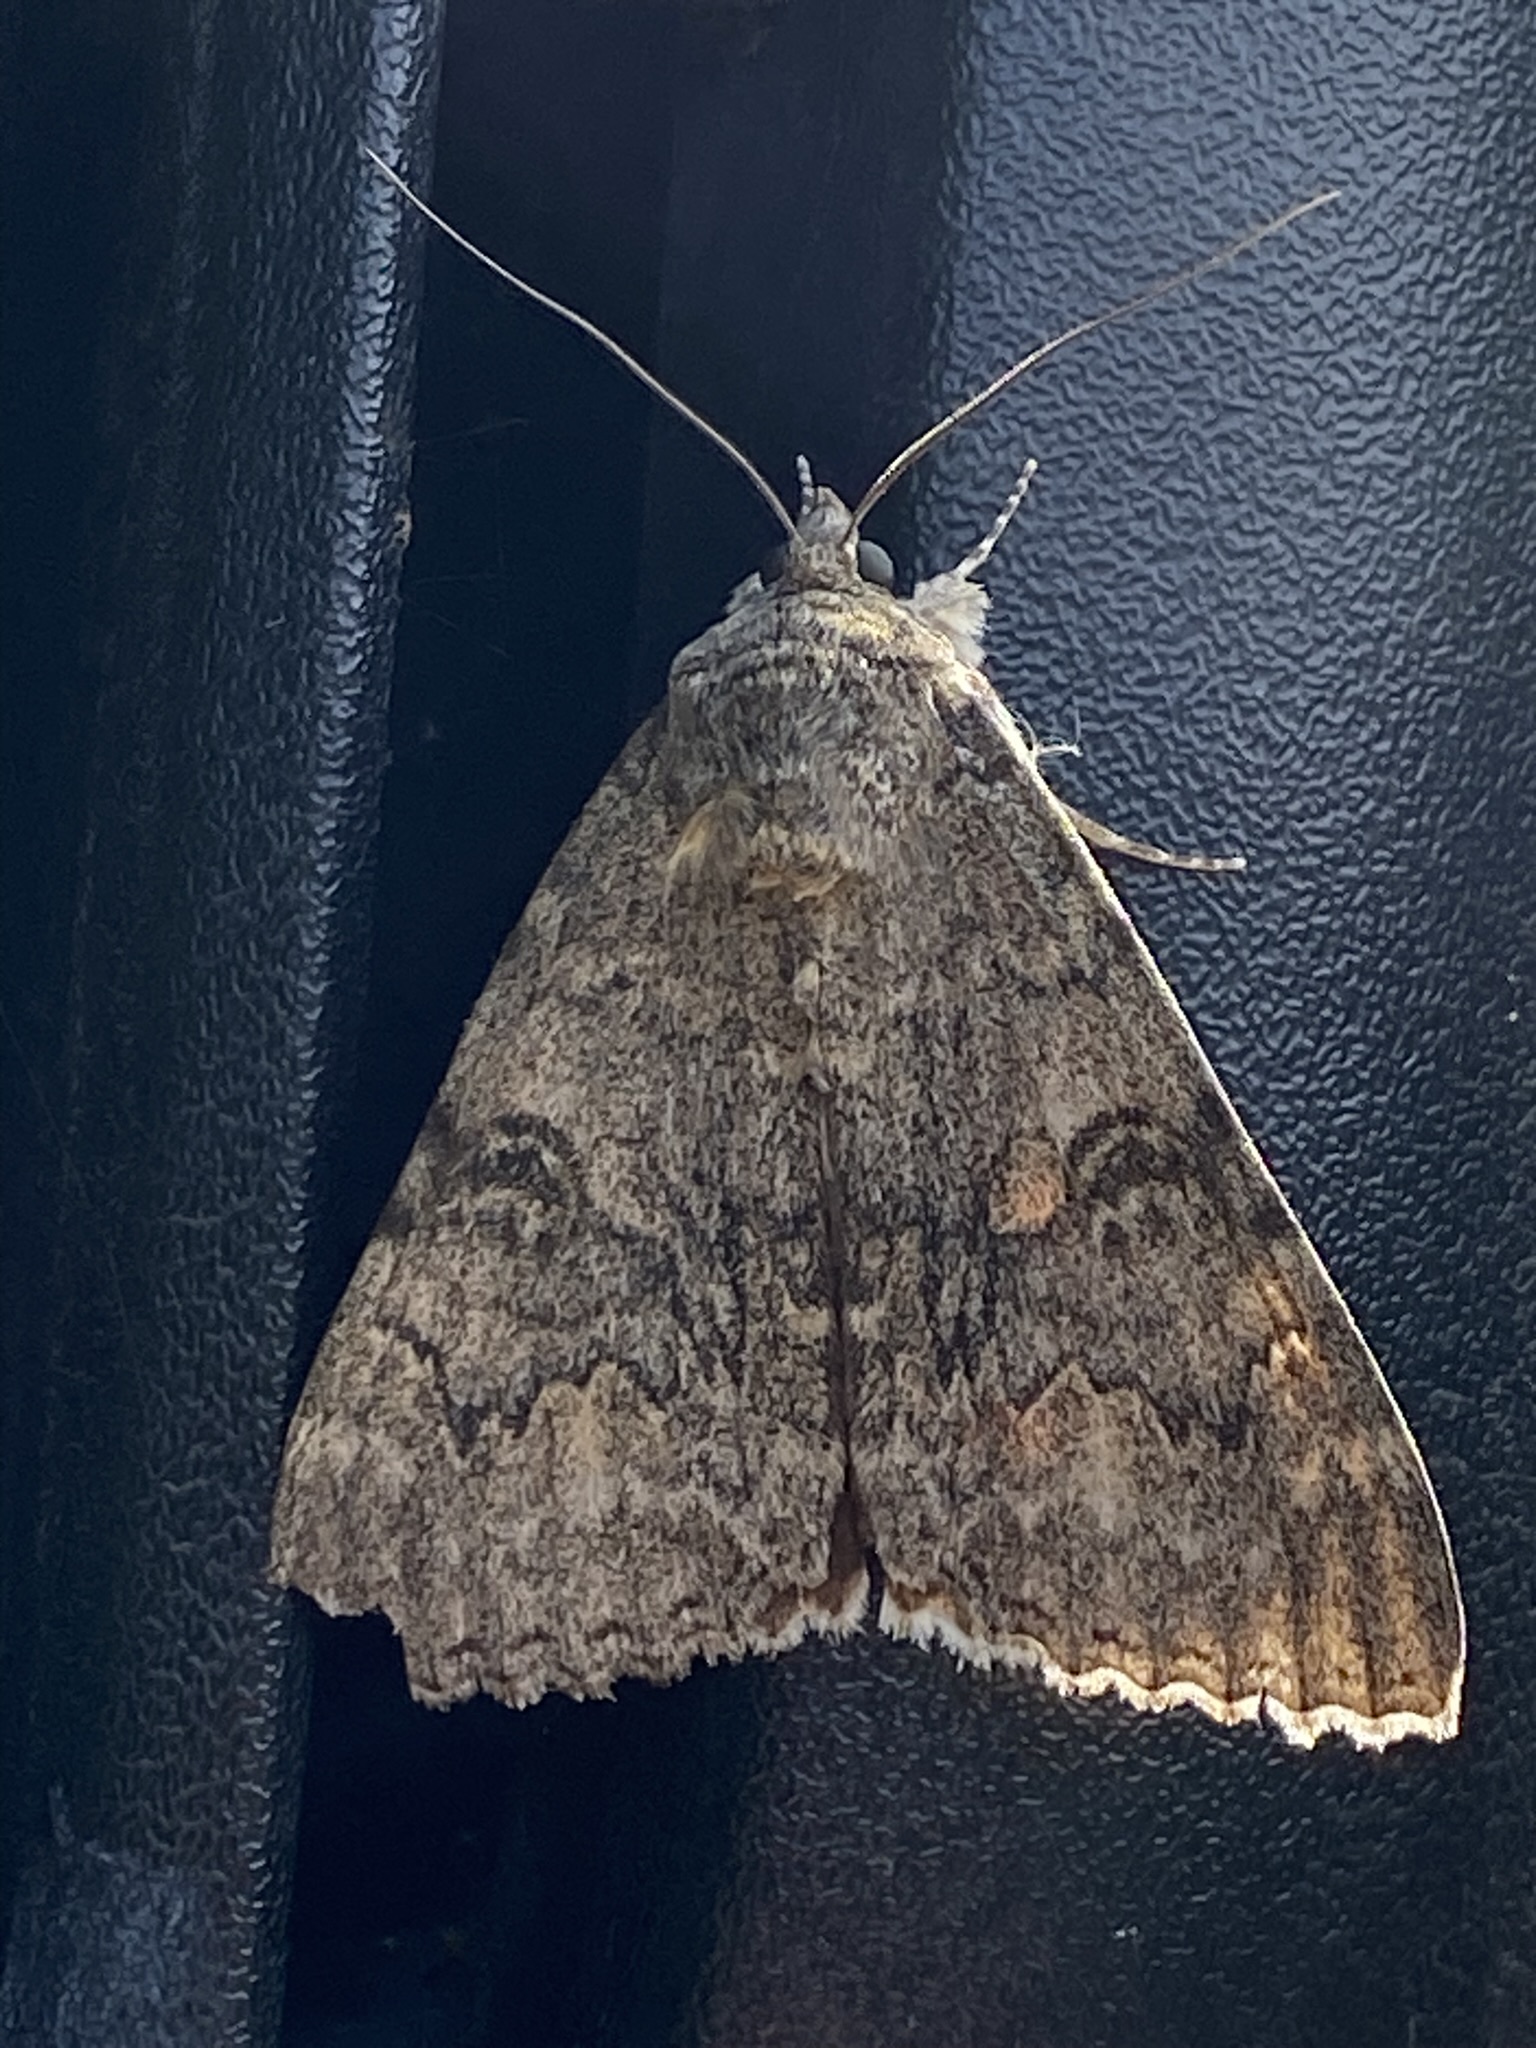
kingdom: Animalia
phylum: Arthropoda
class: Insecta
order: Lepidoptera
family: Erebidae
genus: Catocala
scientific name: Catocala nupta
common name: Red underwing
